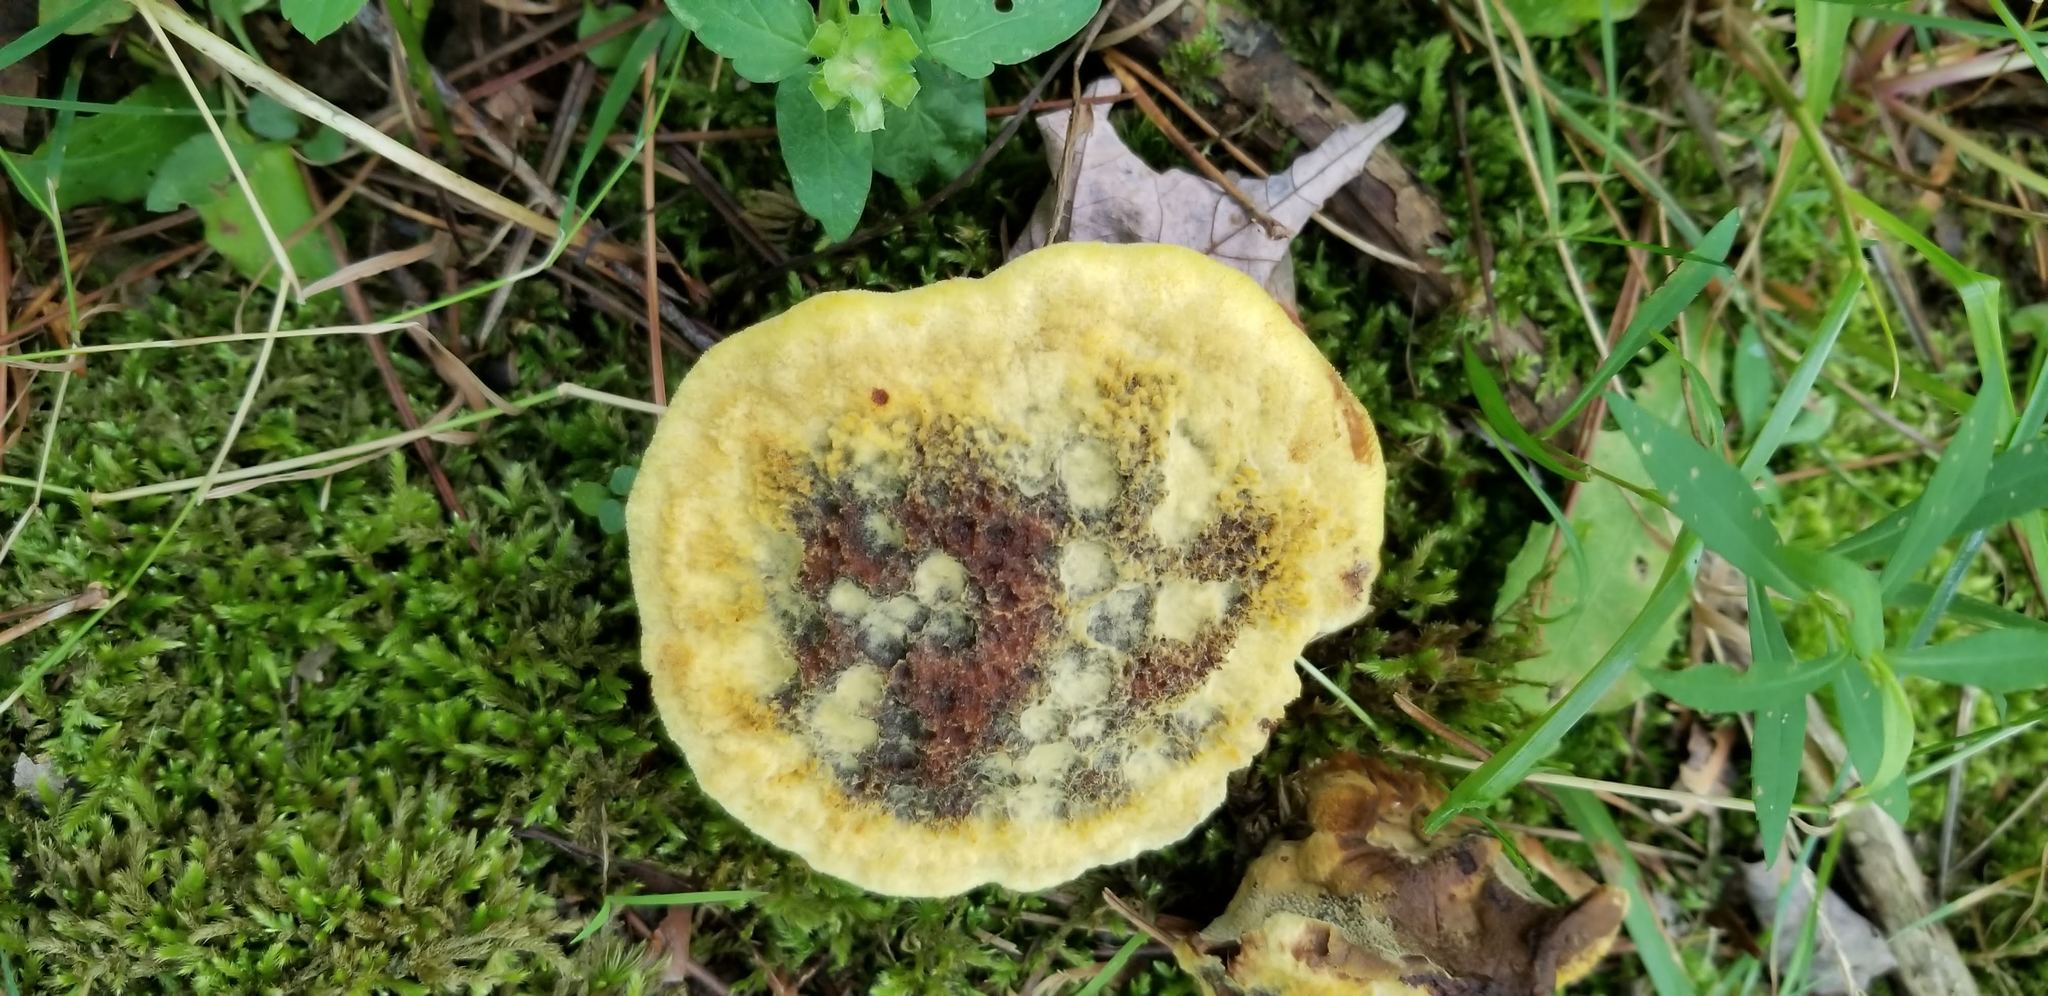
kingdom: Fungi
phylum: Basidiomycota
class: Agaricomycetes
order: Polyporales
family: Laetiporaceae
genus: Phaeolus
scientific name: Phaeolus schweinitzii
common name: Dyer's mazegill
